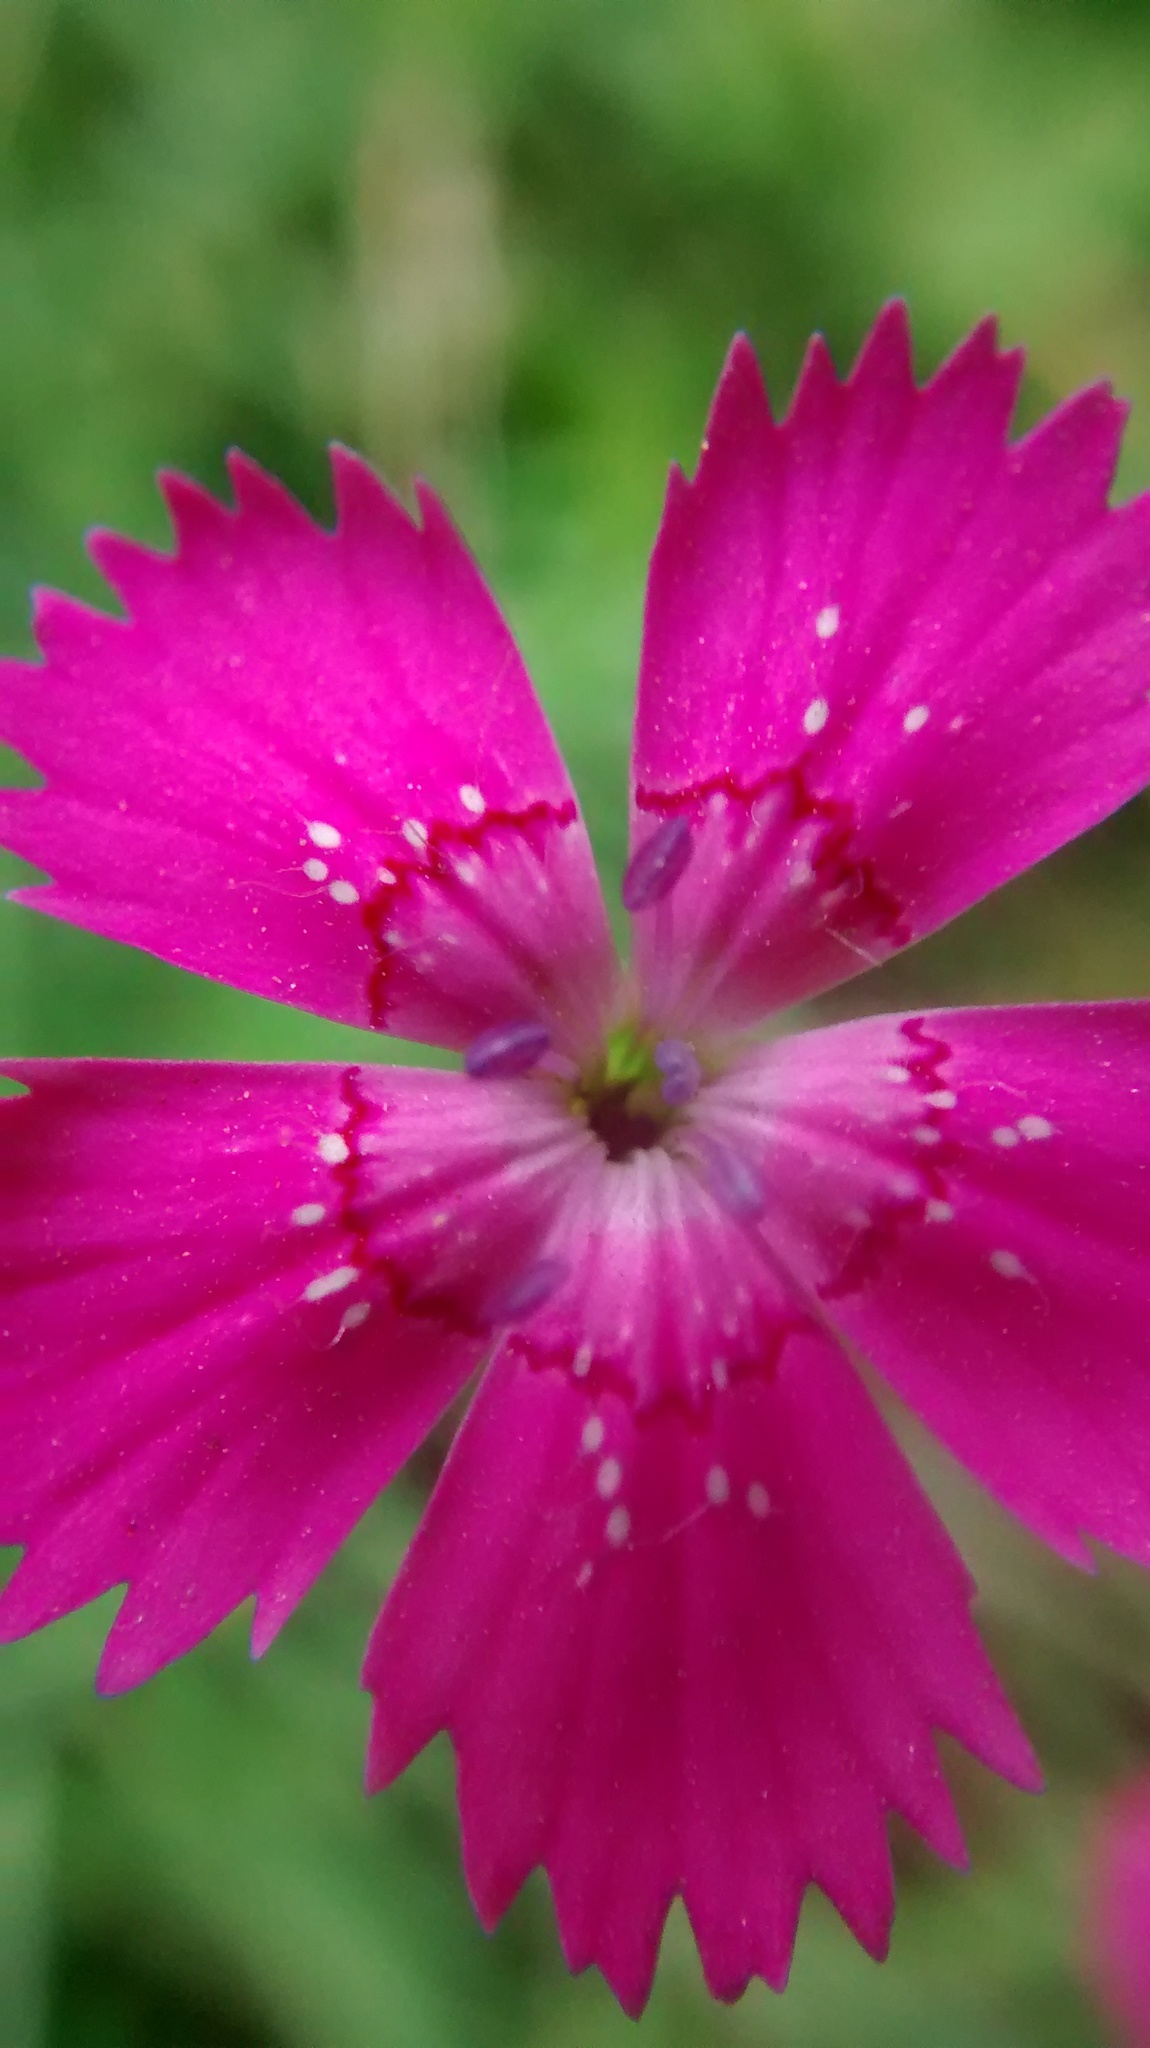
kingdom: Plantae
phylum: Tracheophyta
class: Magnoliopsida
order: Caryophyllales
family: Caryophyllaceae
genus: Dianthus
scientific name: Dianthus deltoides
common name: Maiden pink
